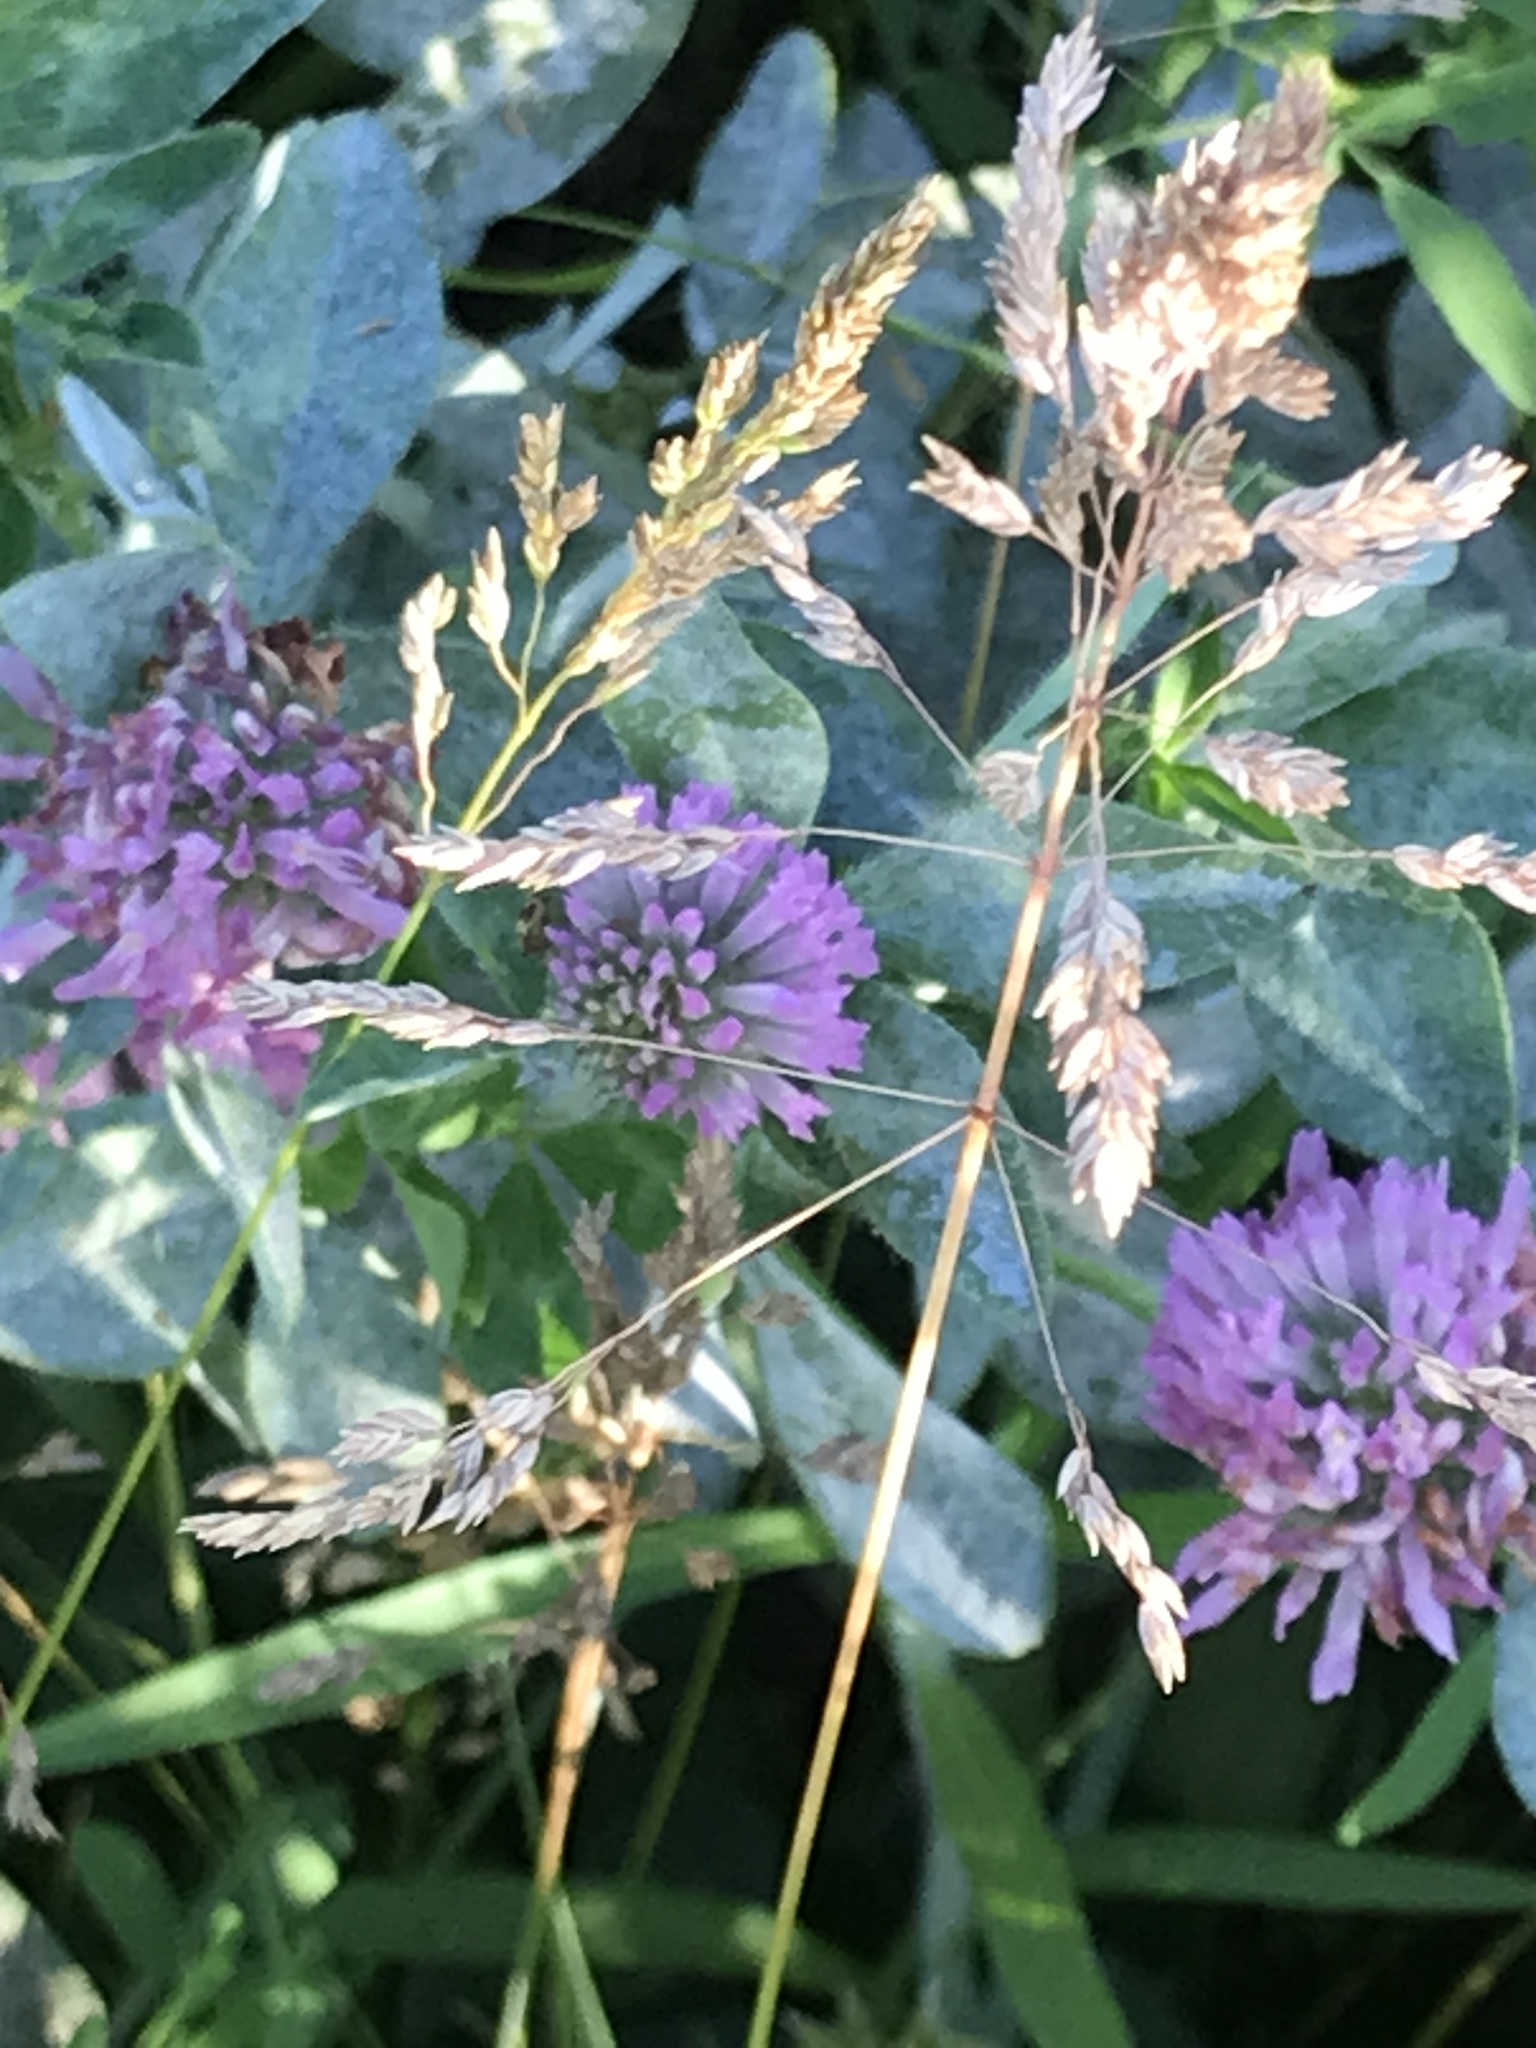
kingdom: Plantae
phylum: Tracheophyta
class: Magnoliopsida
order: Fabales
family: Fabaceae
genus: Trifolium
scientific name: Trifolium pratense
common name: Red clover
